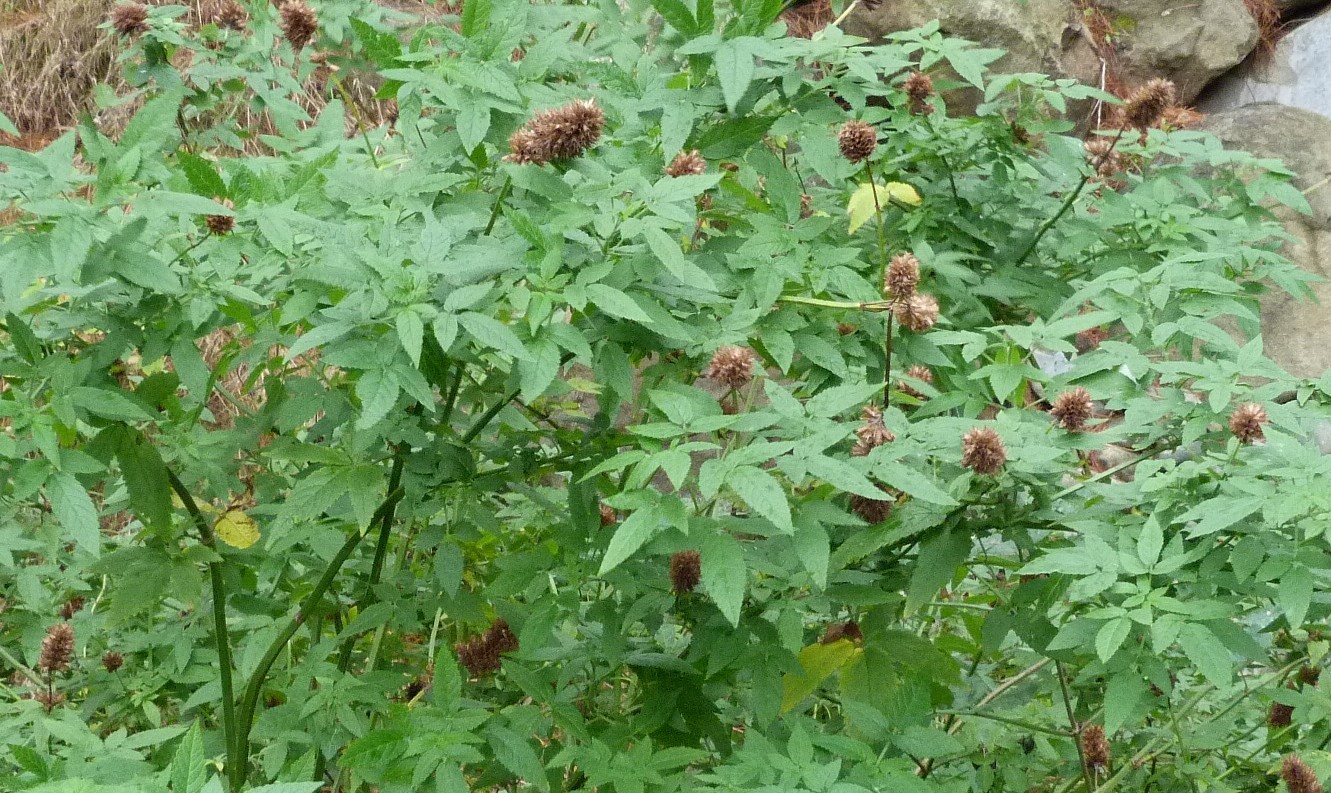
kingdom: Plantae
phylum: Tracheophyta
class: Magnoliopsida
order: Lamiales
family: Lamiaceae
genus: Cedronella
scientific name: Cedronella canariensis
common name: Canary islands balm
